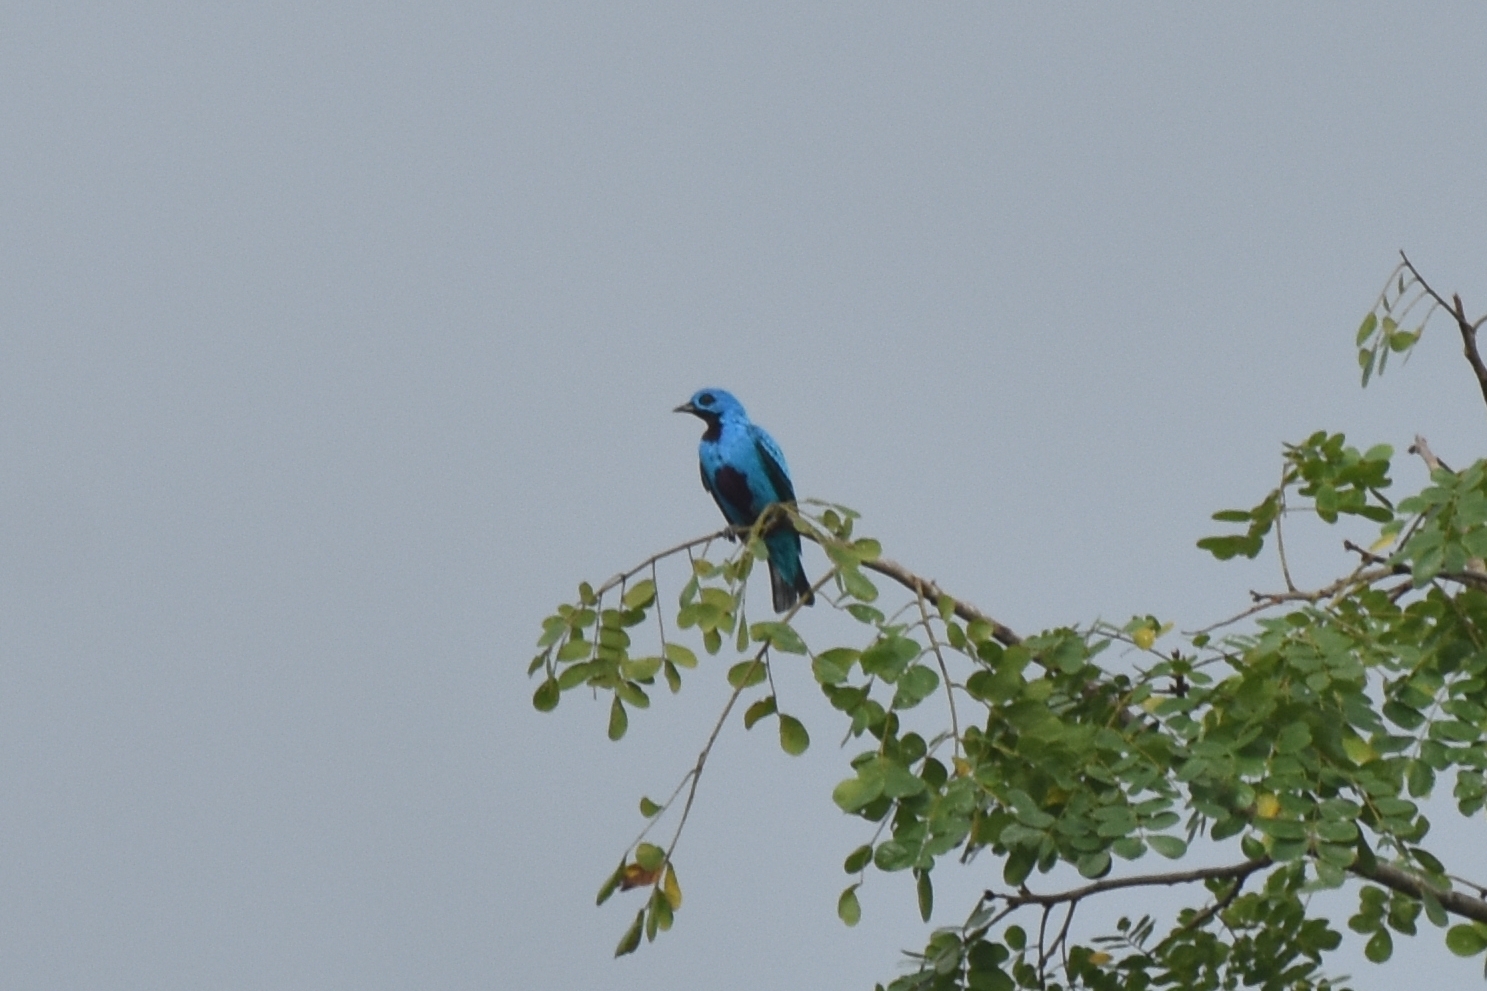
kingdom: Animalia
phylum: Chordata
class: Aves
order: Passeriformes
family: Cotingidae
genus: Cotinga
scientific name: Cotinga nattererii
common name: Blue cotinga
